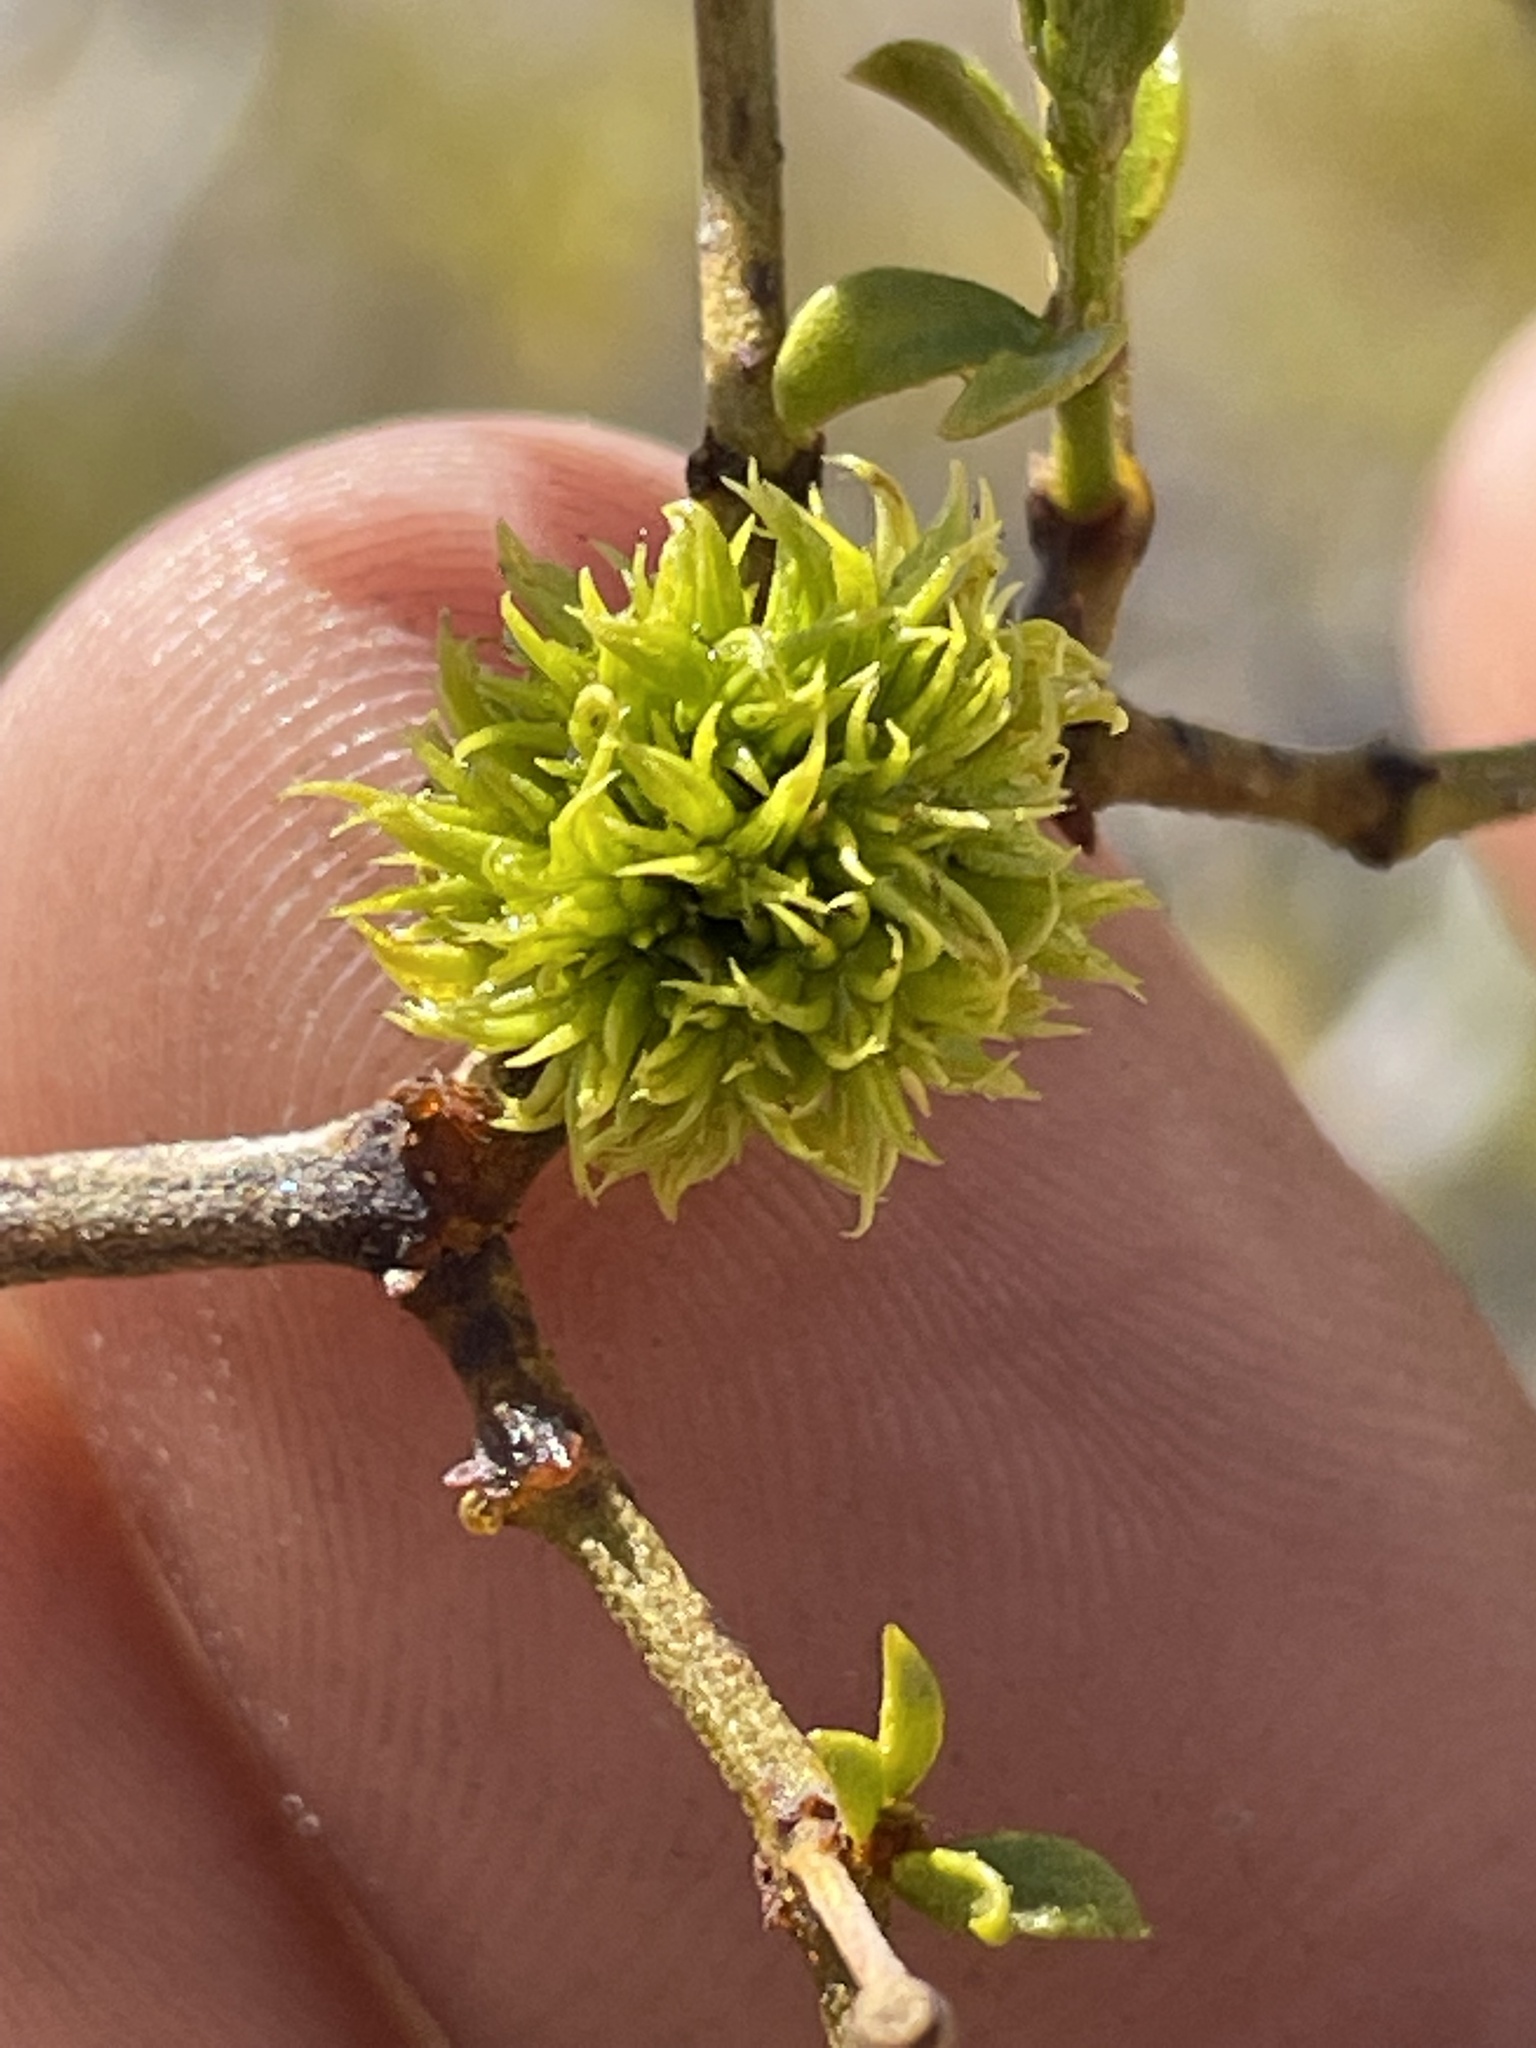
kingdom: Animalia
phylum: Arthropoda
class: Insecta
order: Diptera
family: Cecidomyiidae
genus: Asphondylia
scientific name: Asphondylia auripila
